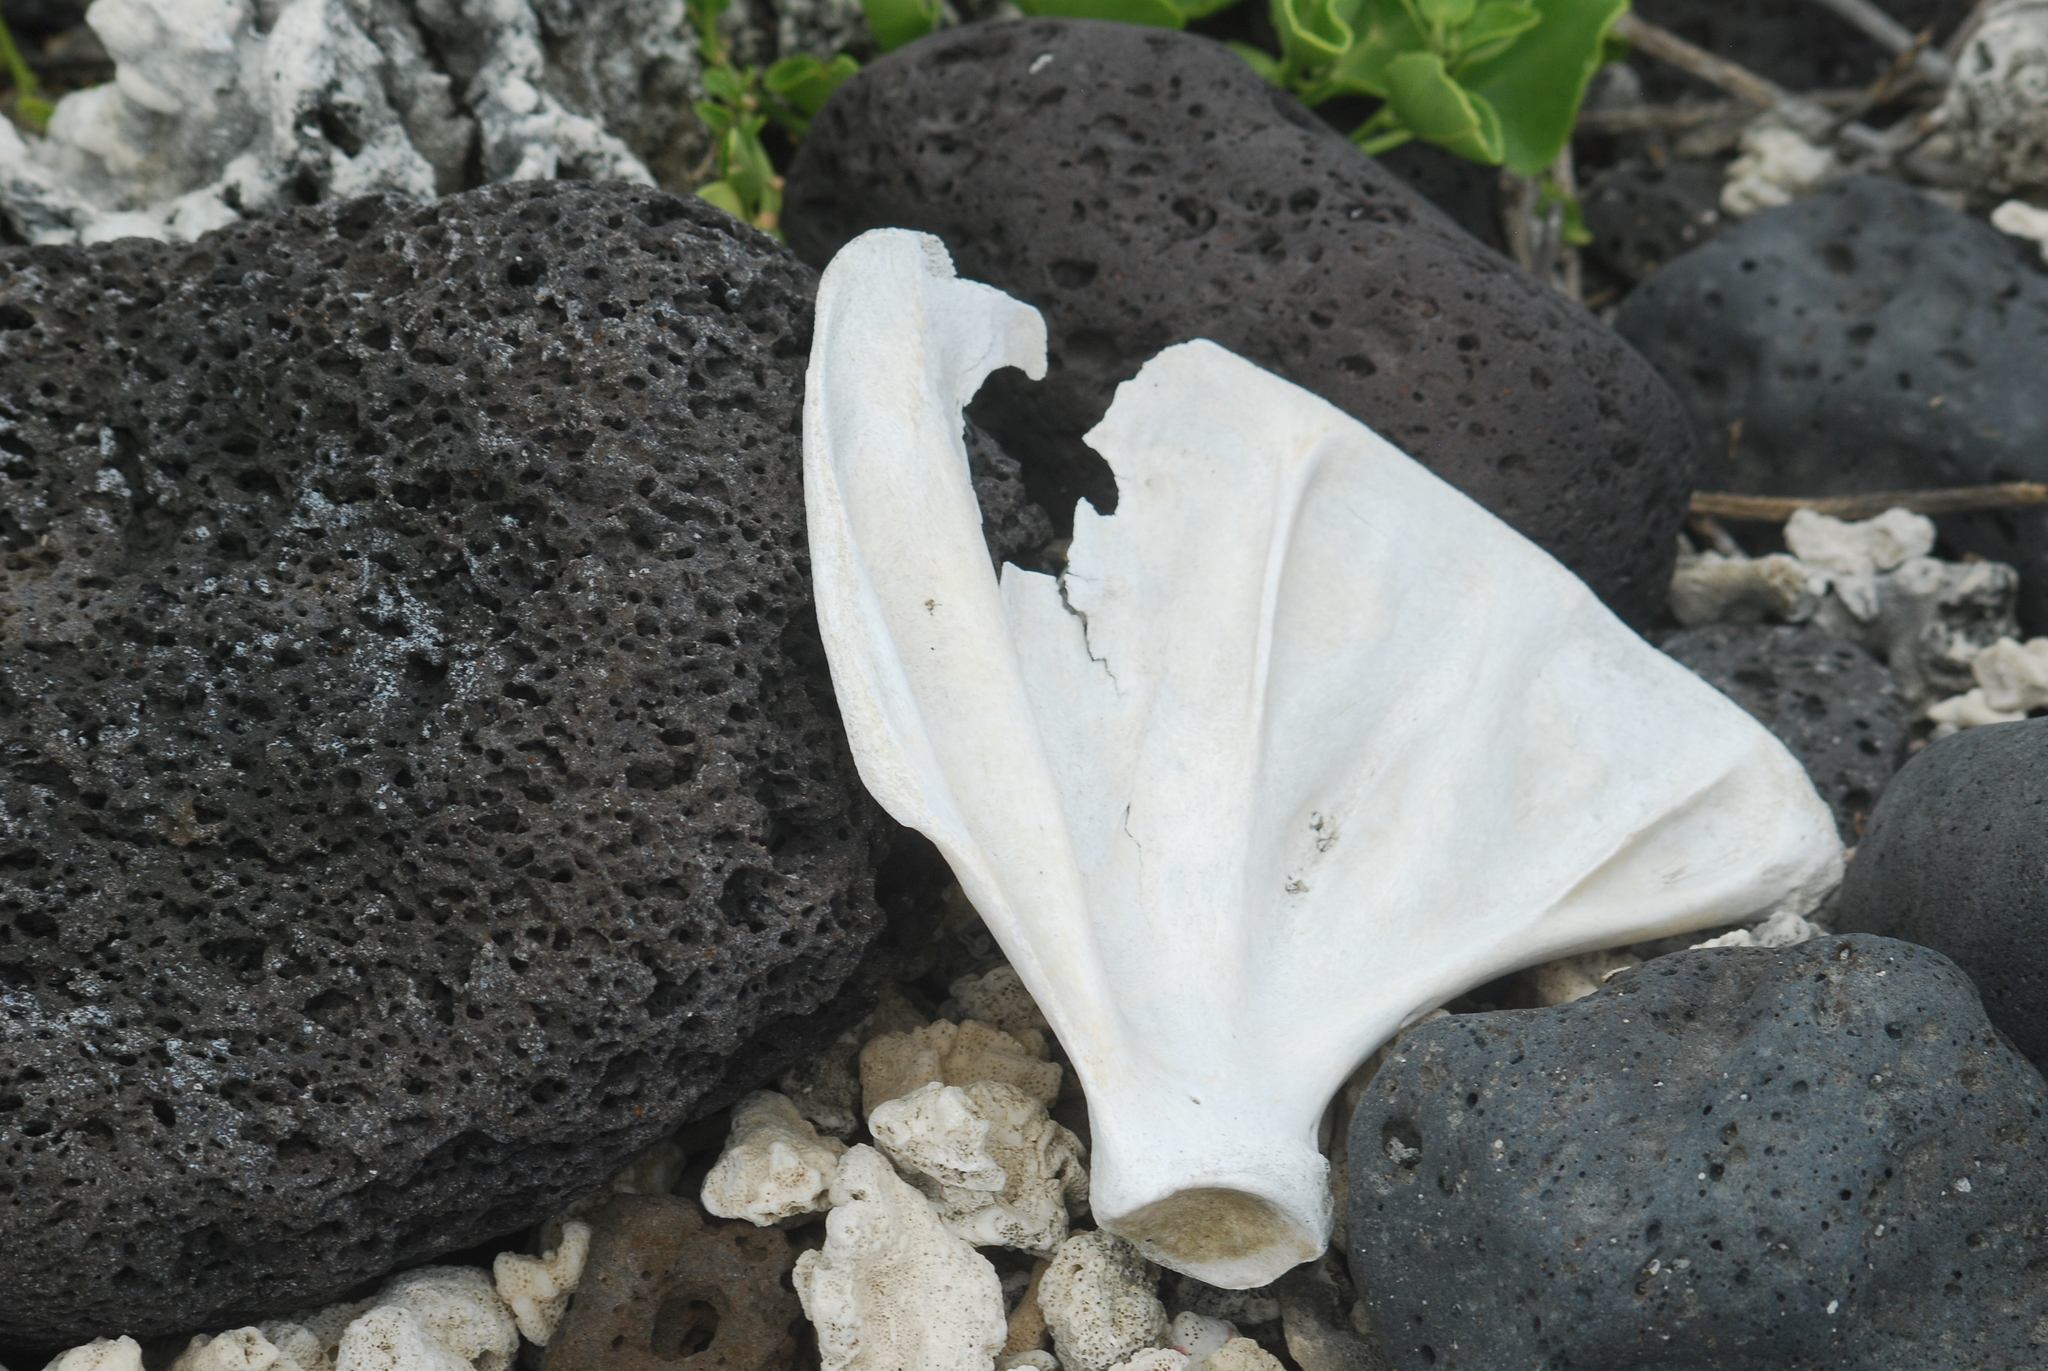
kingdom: Animalia
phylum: Chordata
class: Mammalia
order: Carnivora
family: Otariidae
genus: Zalophus
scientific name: Zalophus wollebaeki
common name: Galapagos sea lion
